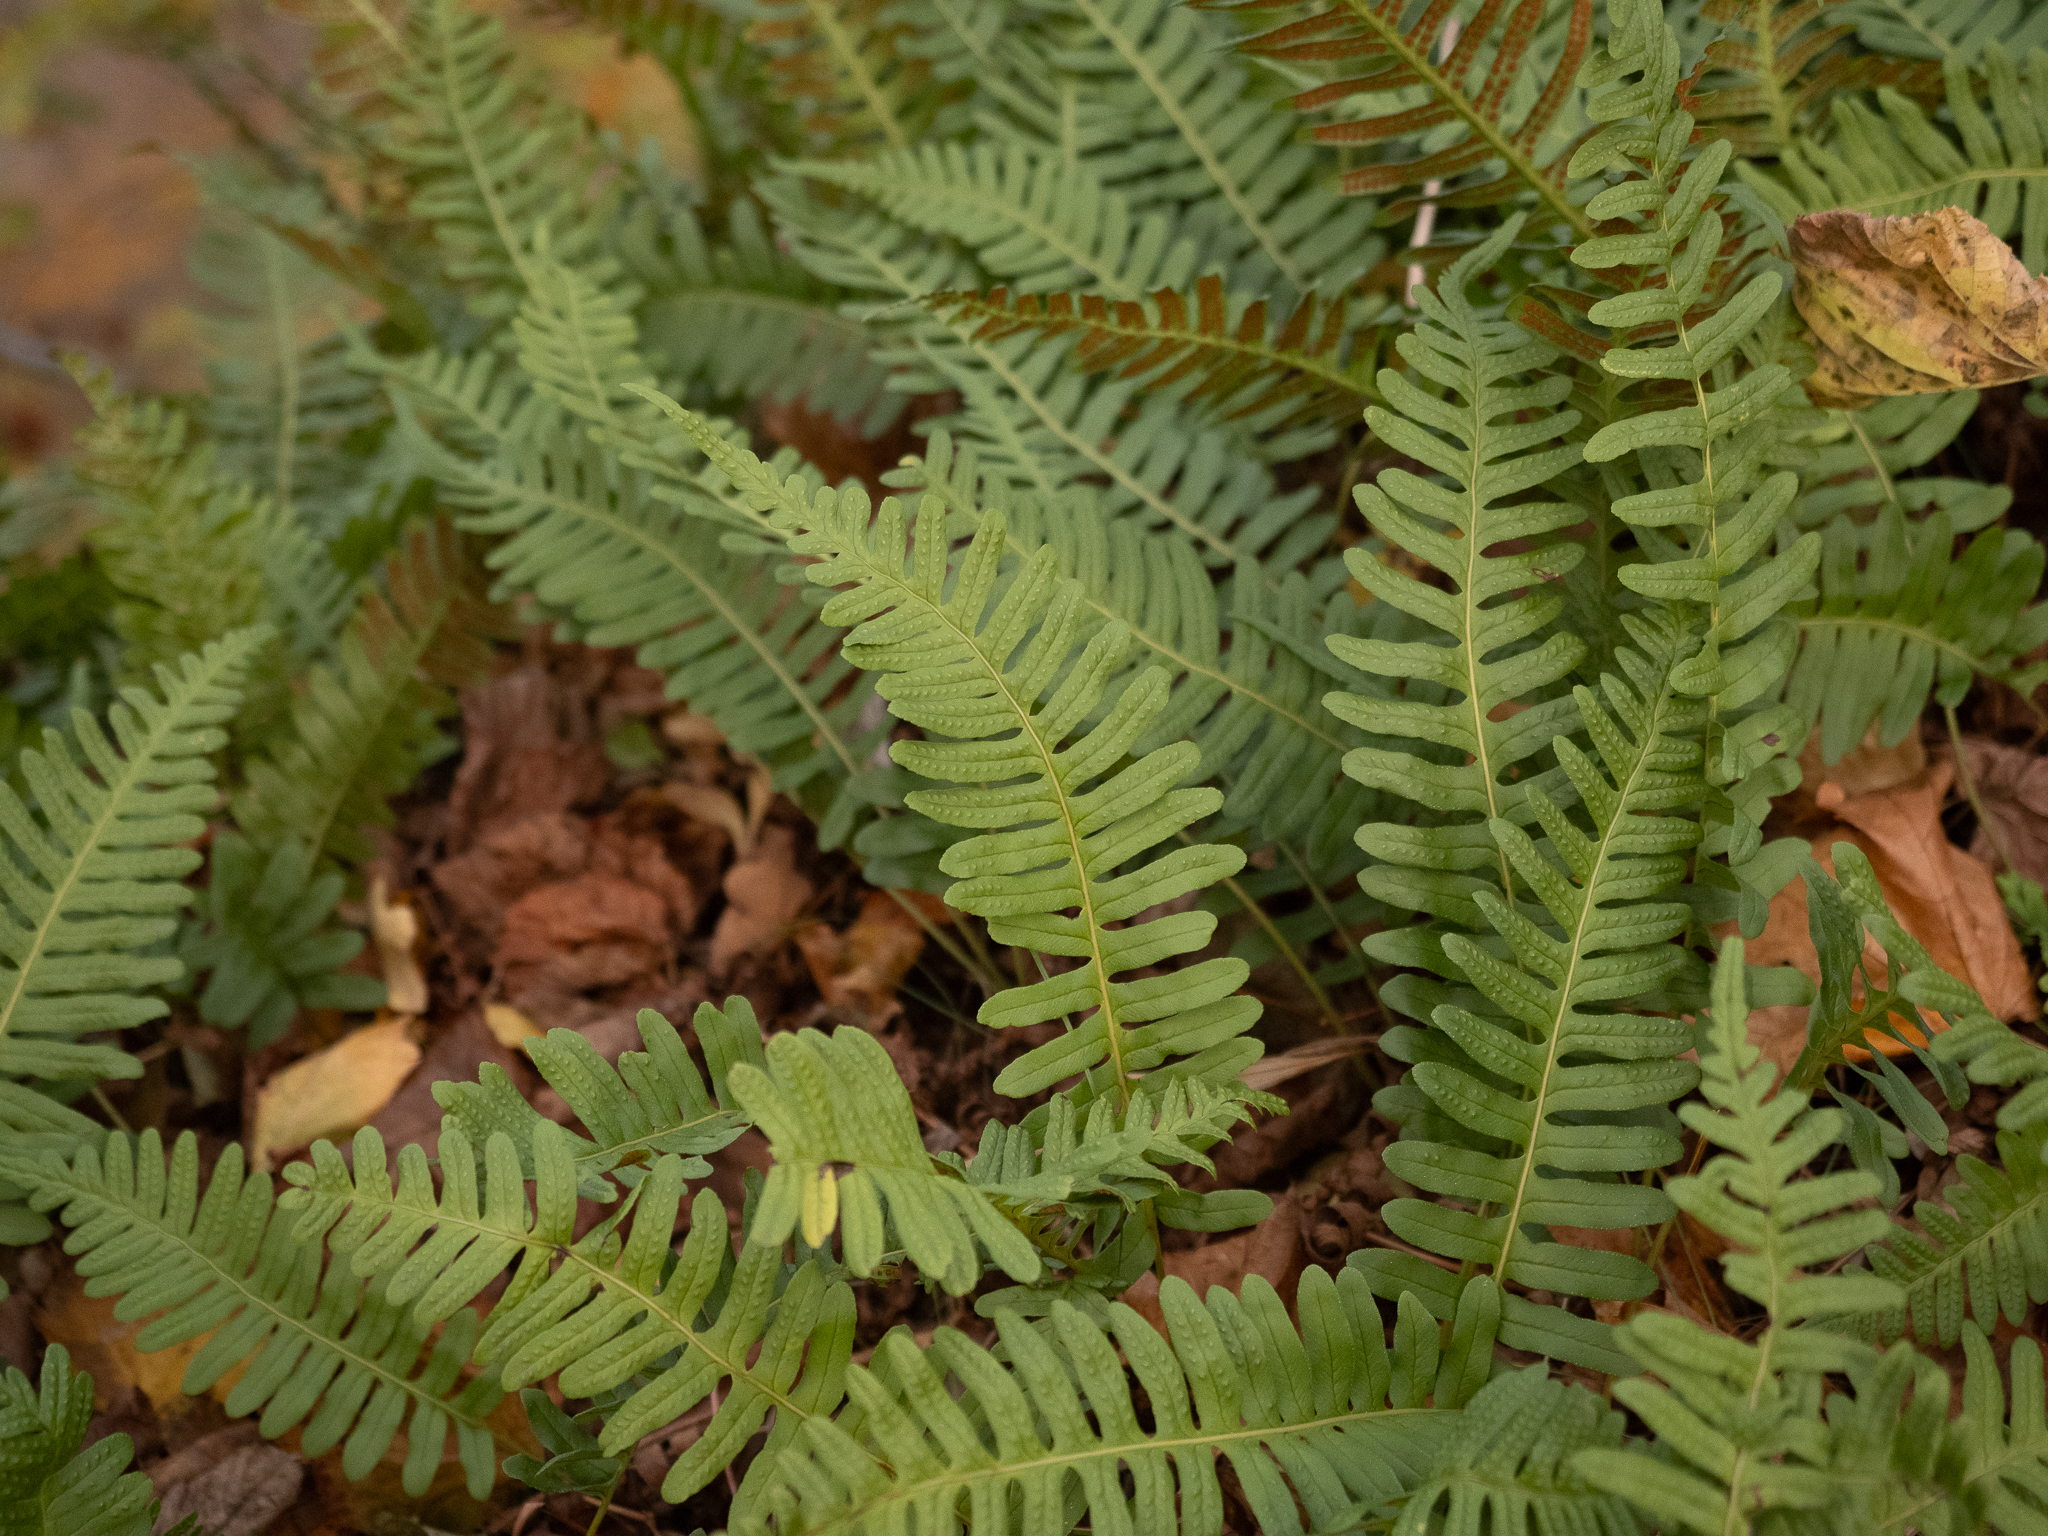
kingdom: Plantae
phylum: Tracheophyta
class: Polypodiopsida
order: Polypodiales
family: Polypodiaceae
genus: Polypodium
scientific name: Polypodium vulgare
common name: Common polypody
